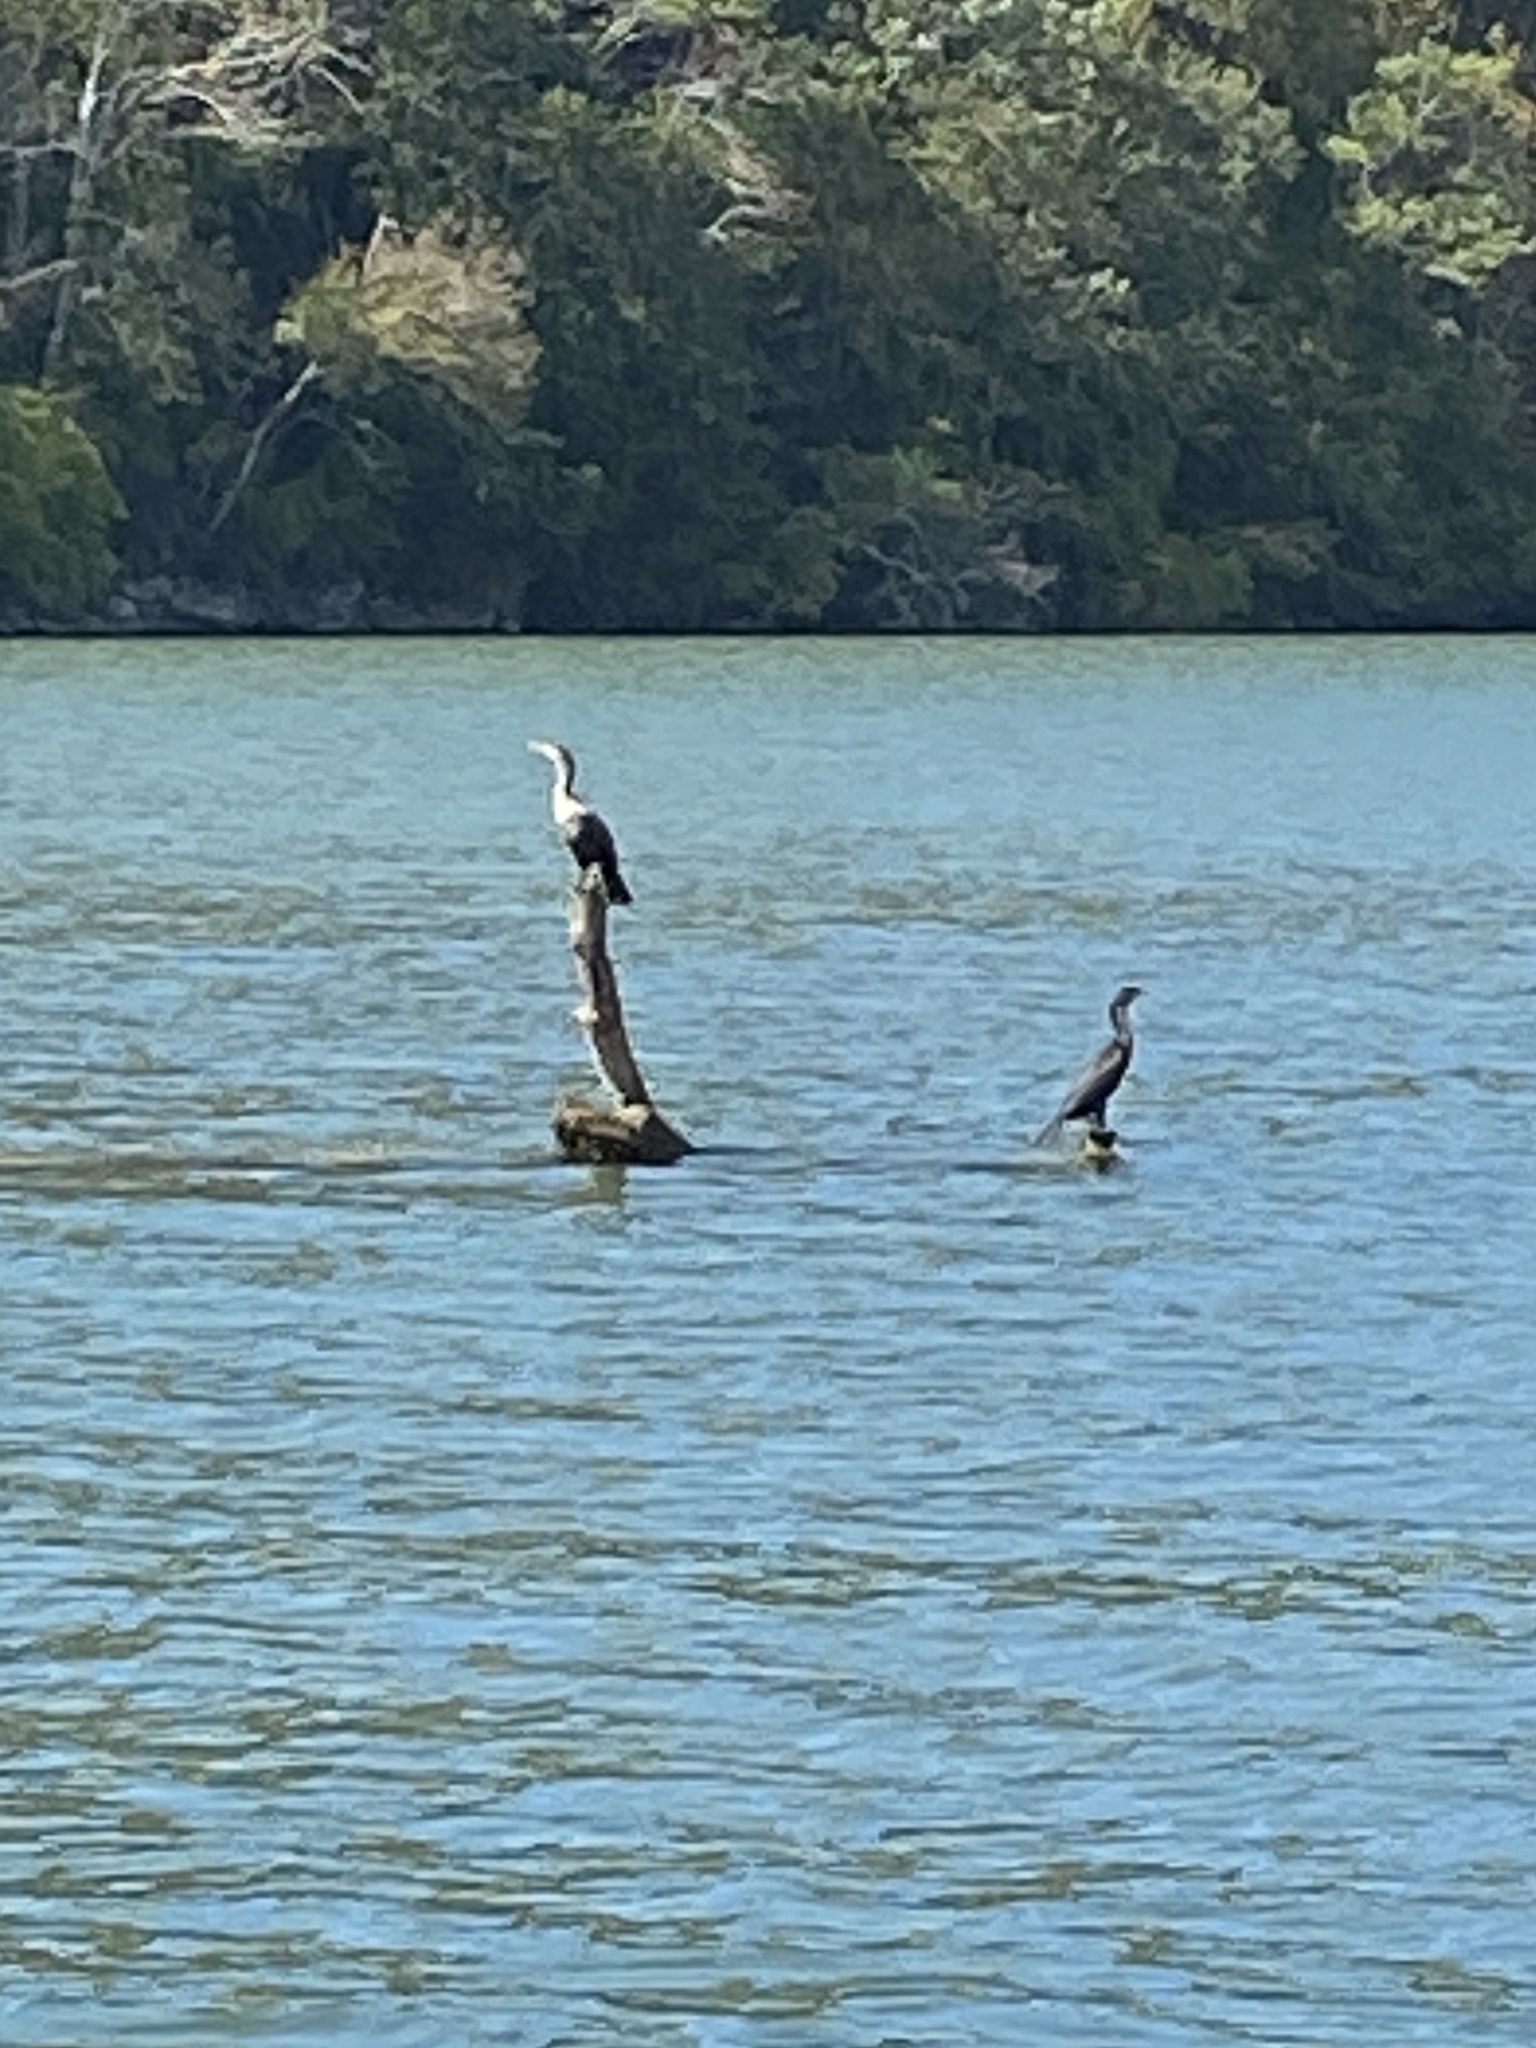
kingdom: Animalia
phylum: Chordata
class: Aves
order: Suliformes
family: Phalacrocoracidae
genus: Phalacrocorax
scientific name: Phalacrocorax auritus
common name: Double-crested cormorant
